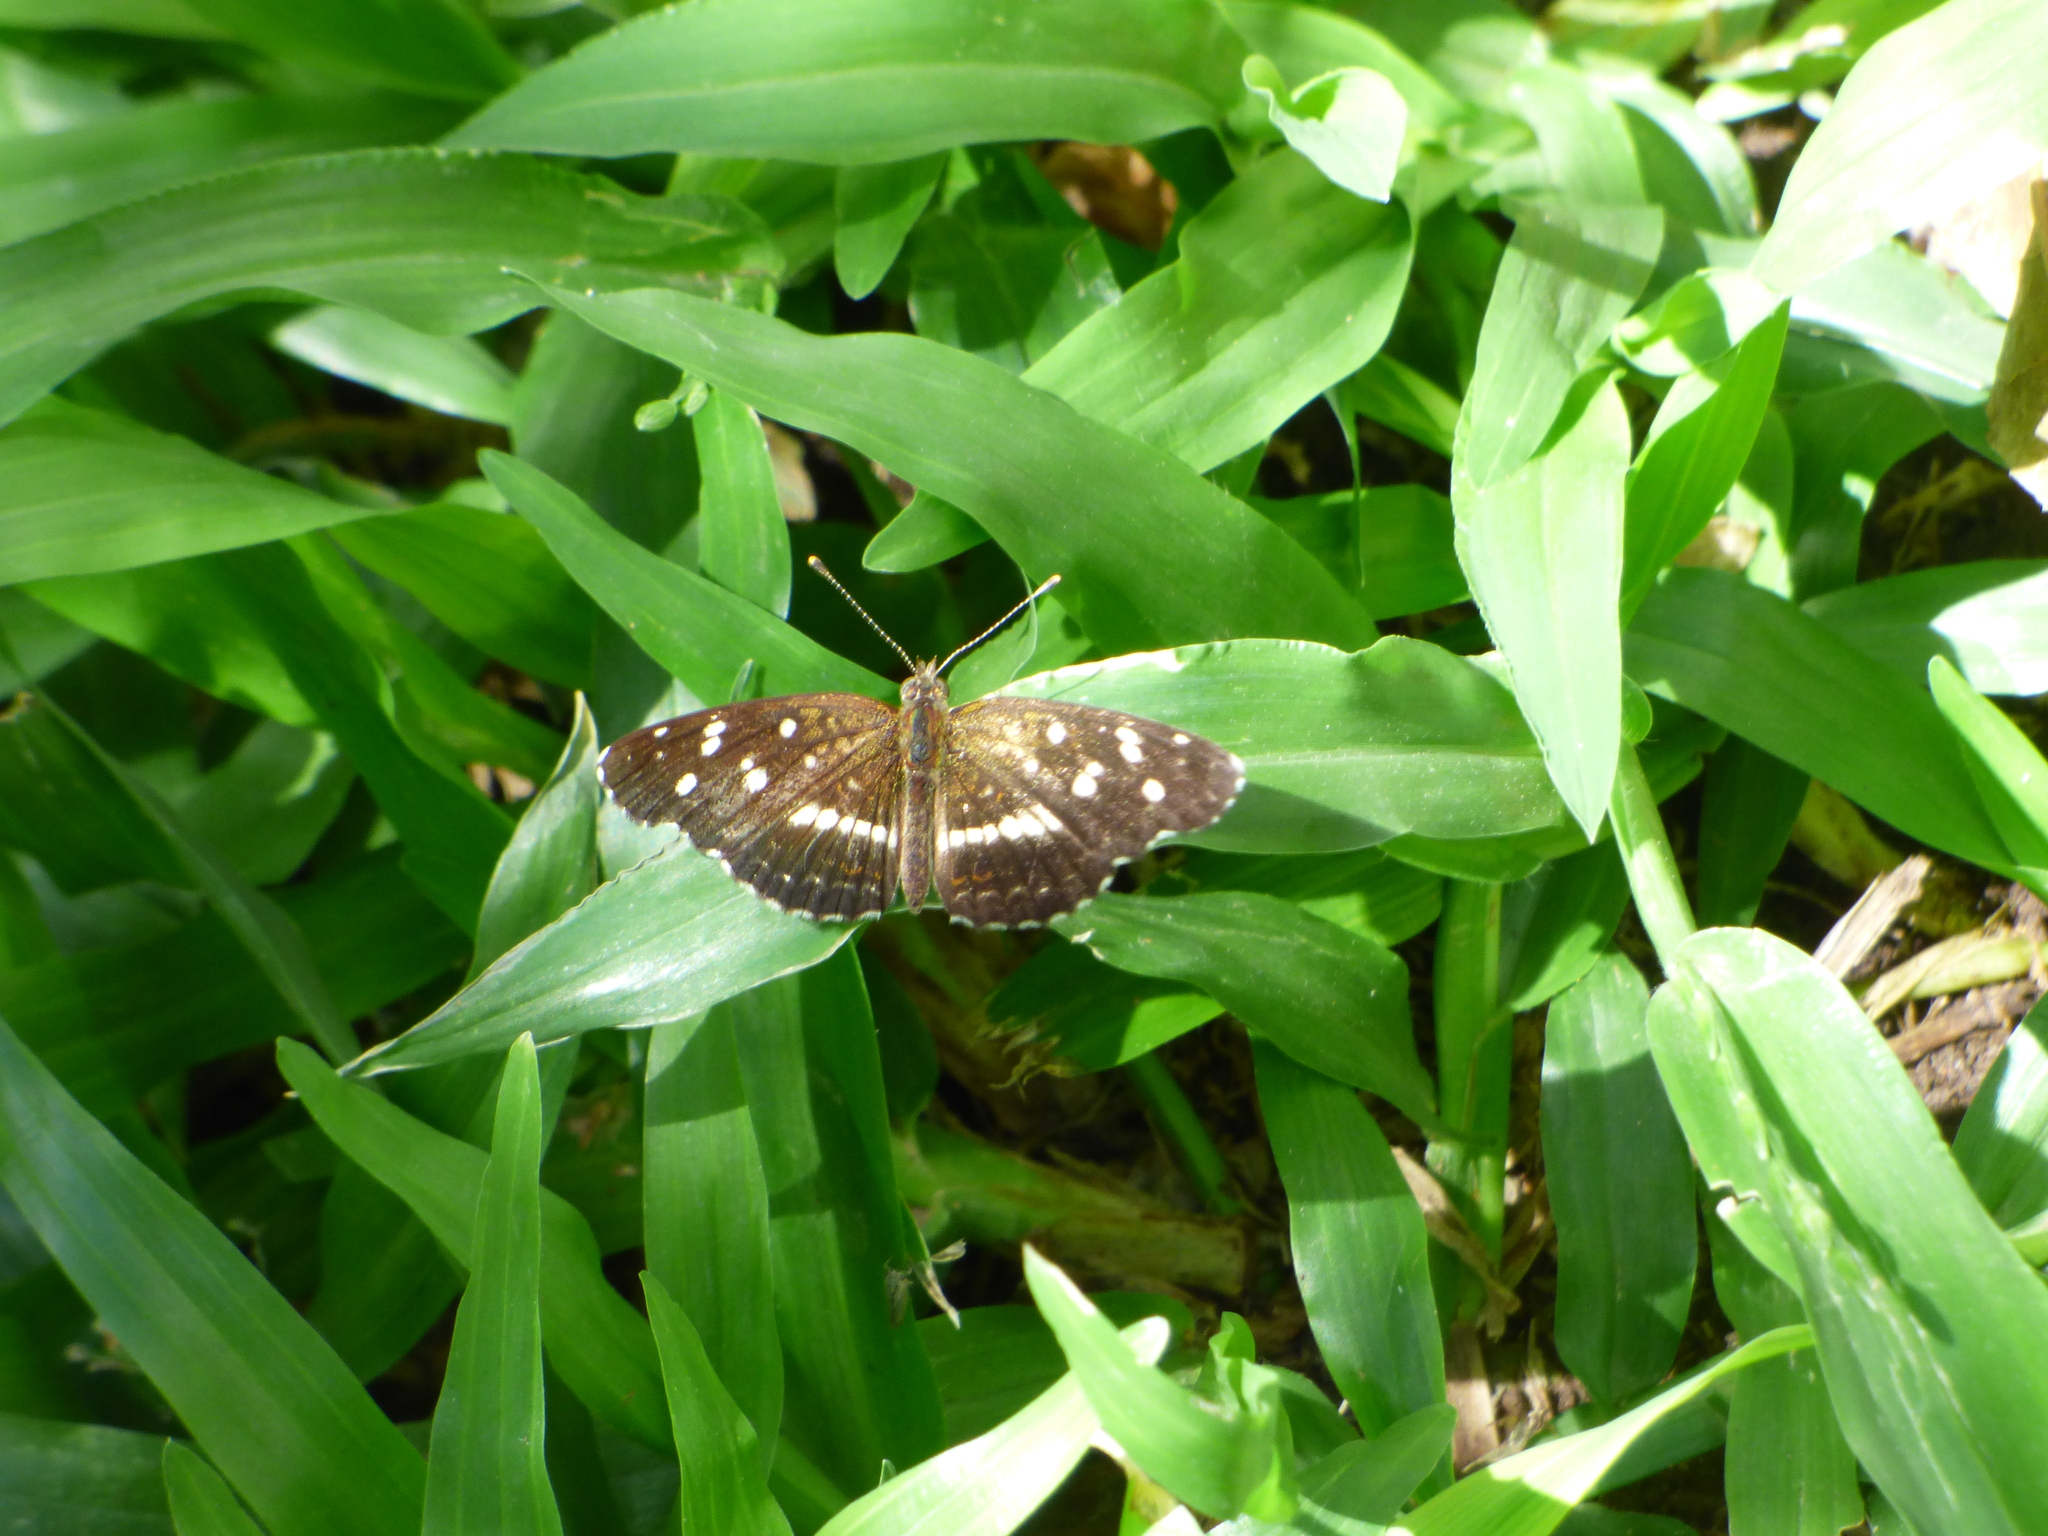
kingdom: Animalia
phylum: Arthropoda
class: Insecta
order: Lepidoptera
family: Nymphalidae
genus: Ortilia
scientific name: Ortilia ithra
